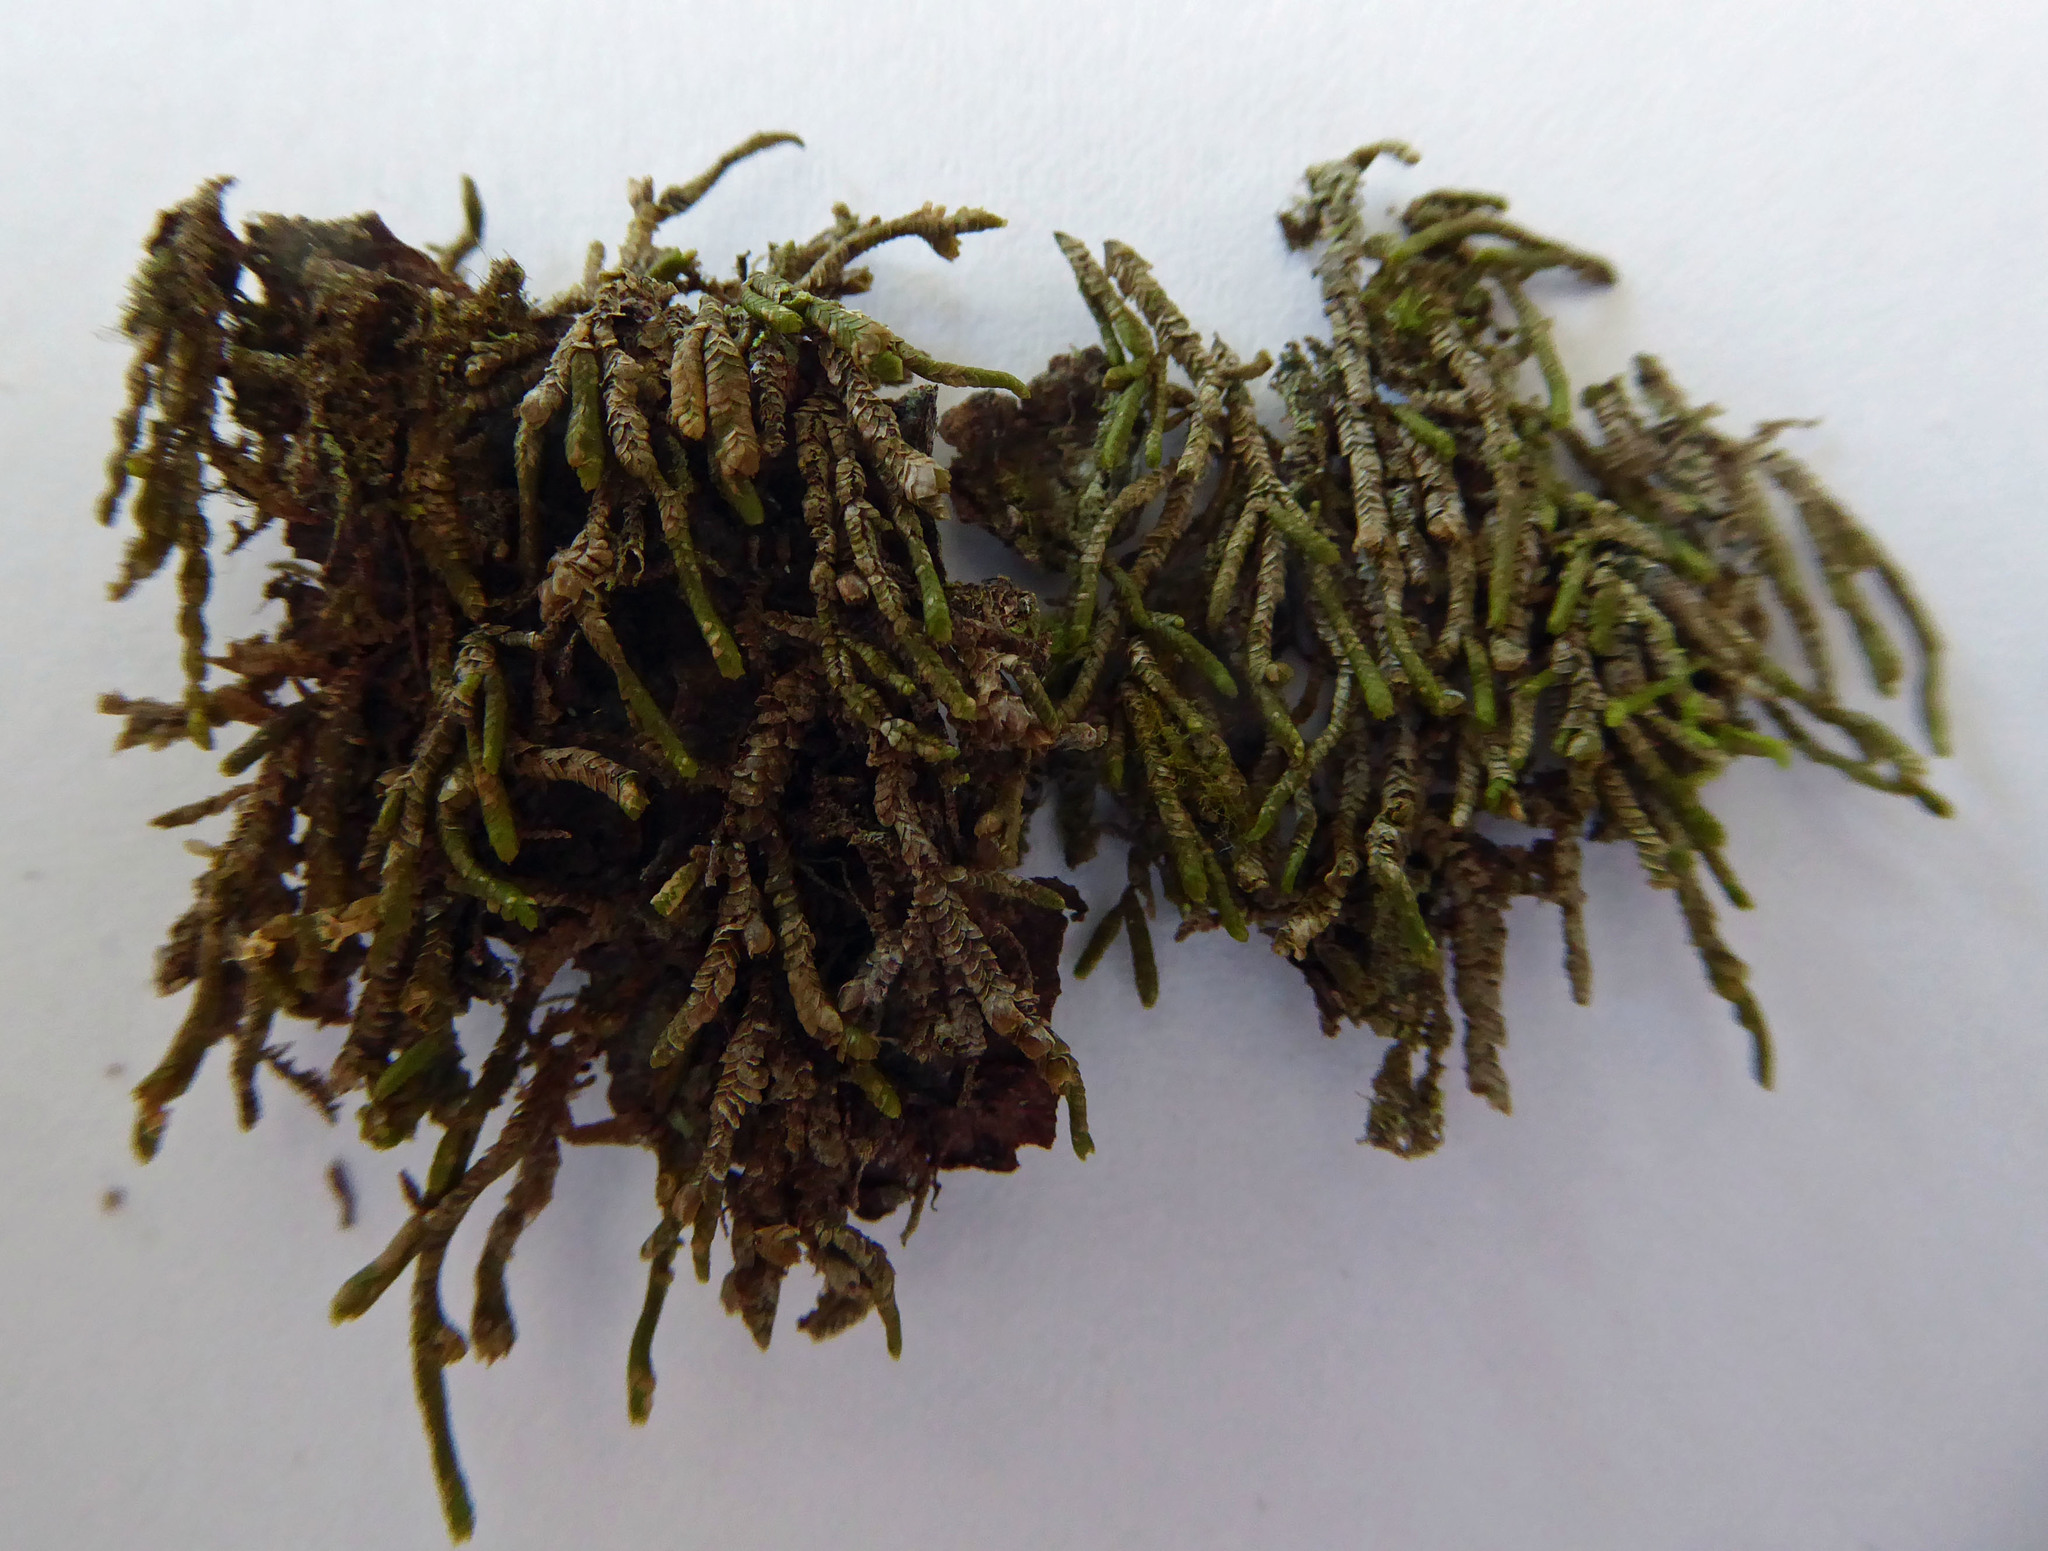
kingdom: Plantae
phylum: Marchantiophyta
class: Jungermanniopsida
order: Porellales
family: Lejeuneaceae
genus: Thysananthus
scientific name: Thysananthus anguiformis
